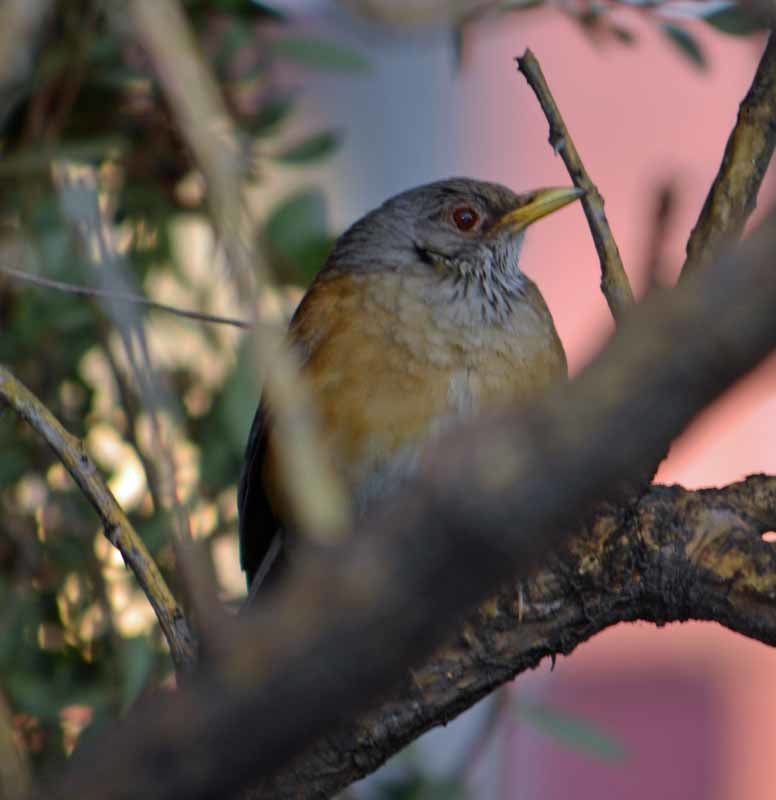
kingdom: Animalia
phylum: Chordata
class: Aves
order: Passeriformes
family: Turdidae
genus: Turdus
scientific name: Turdus rufopalliatus
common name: Rufous-backed robin
